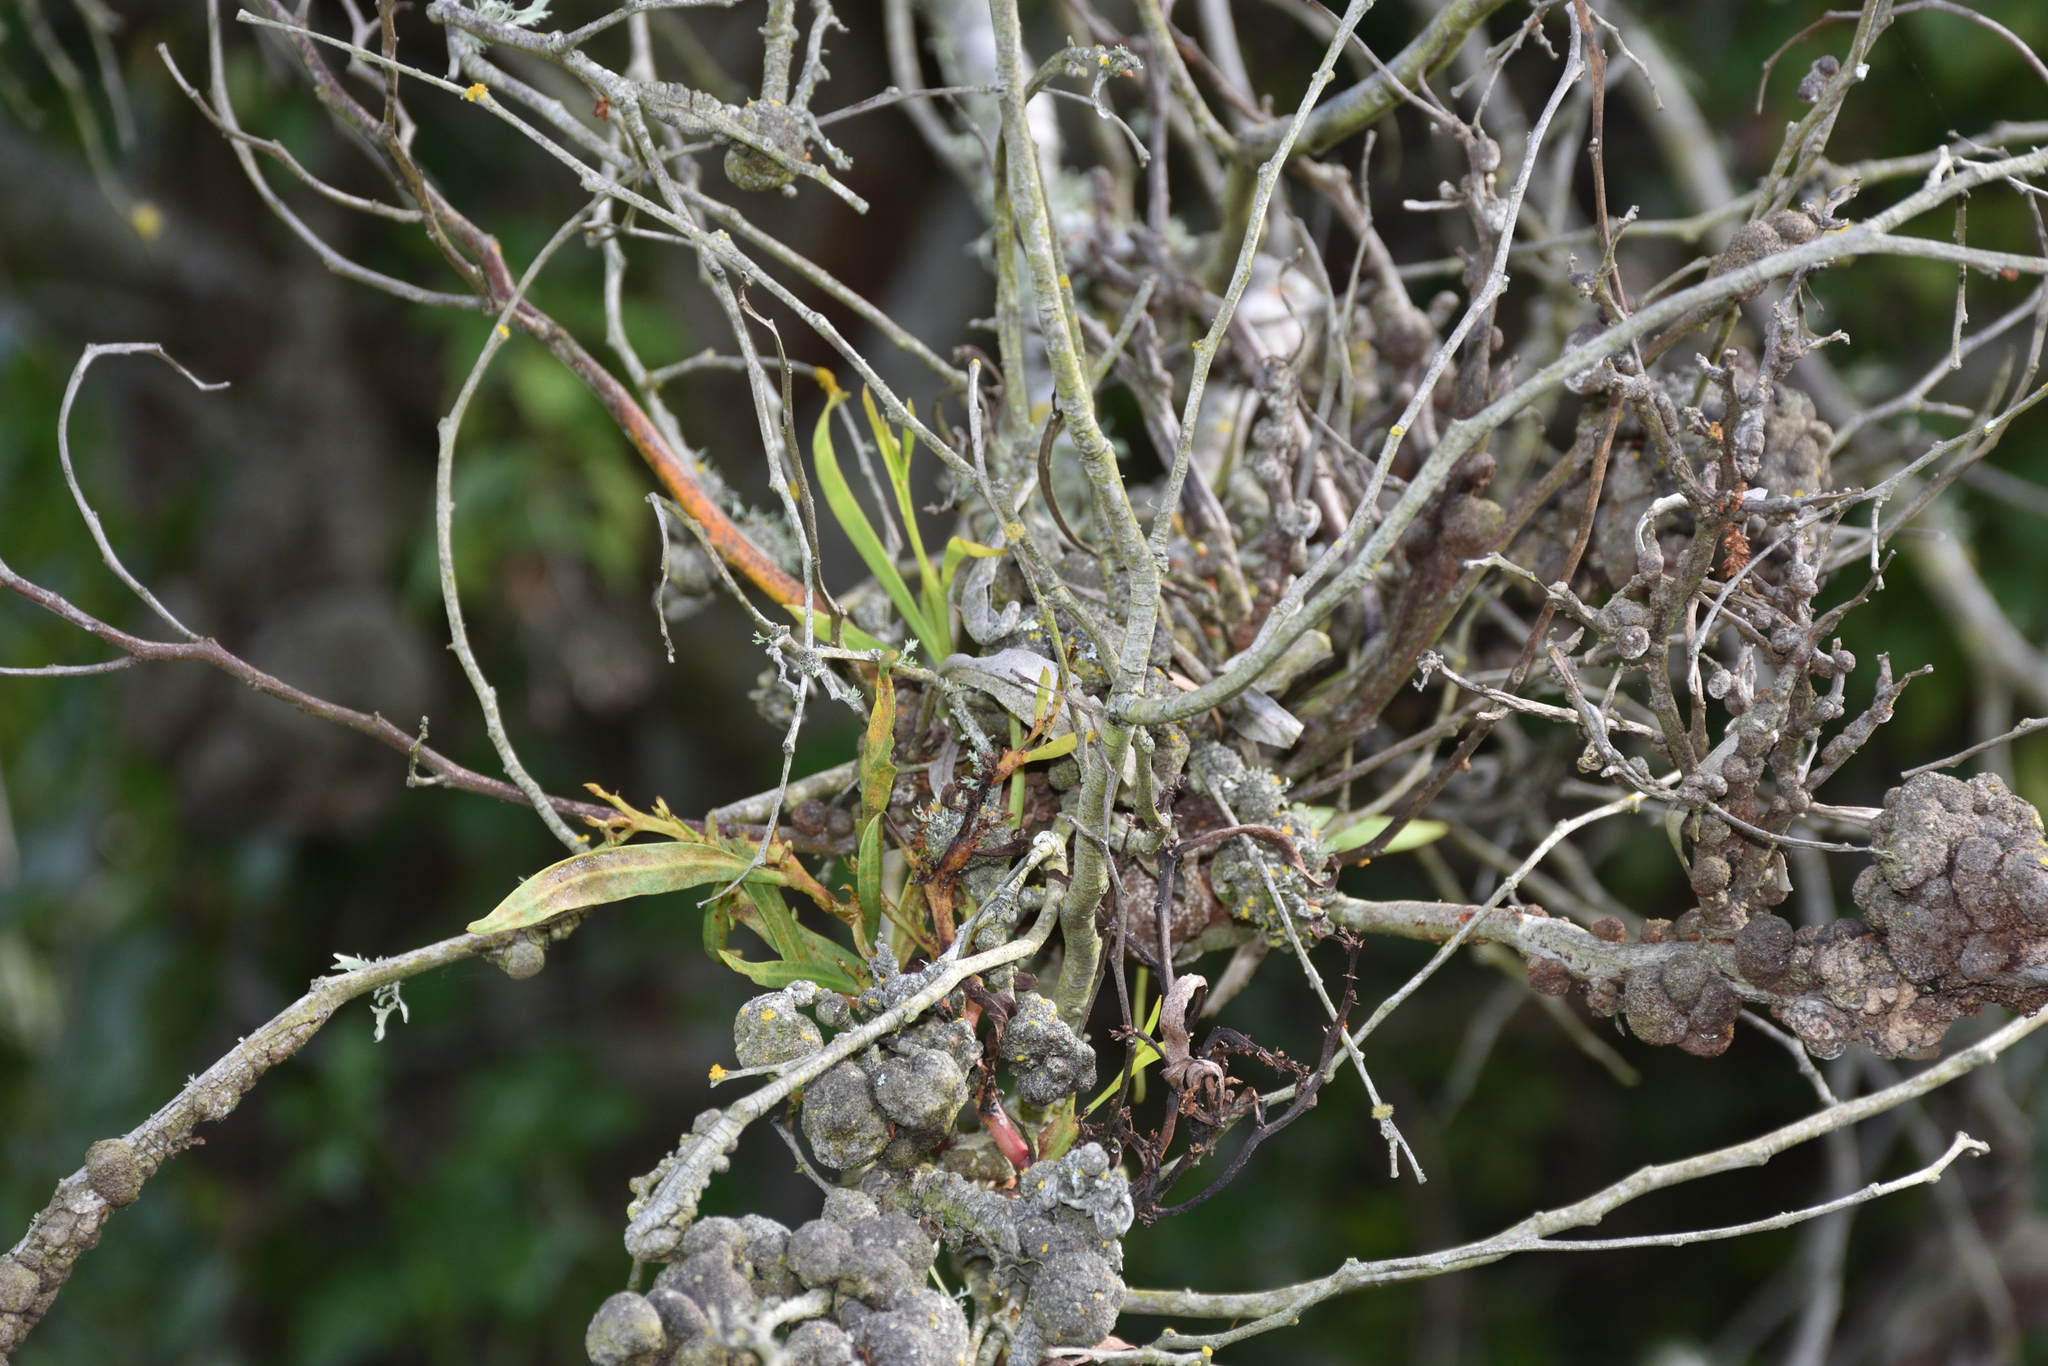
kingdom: Fungi
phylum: Basidiomycota
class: Pucciniomycetes
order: Pucciniales
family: Uromycladiaceae
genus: Uromycladium
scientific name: Uromycladium morrisii
